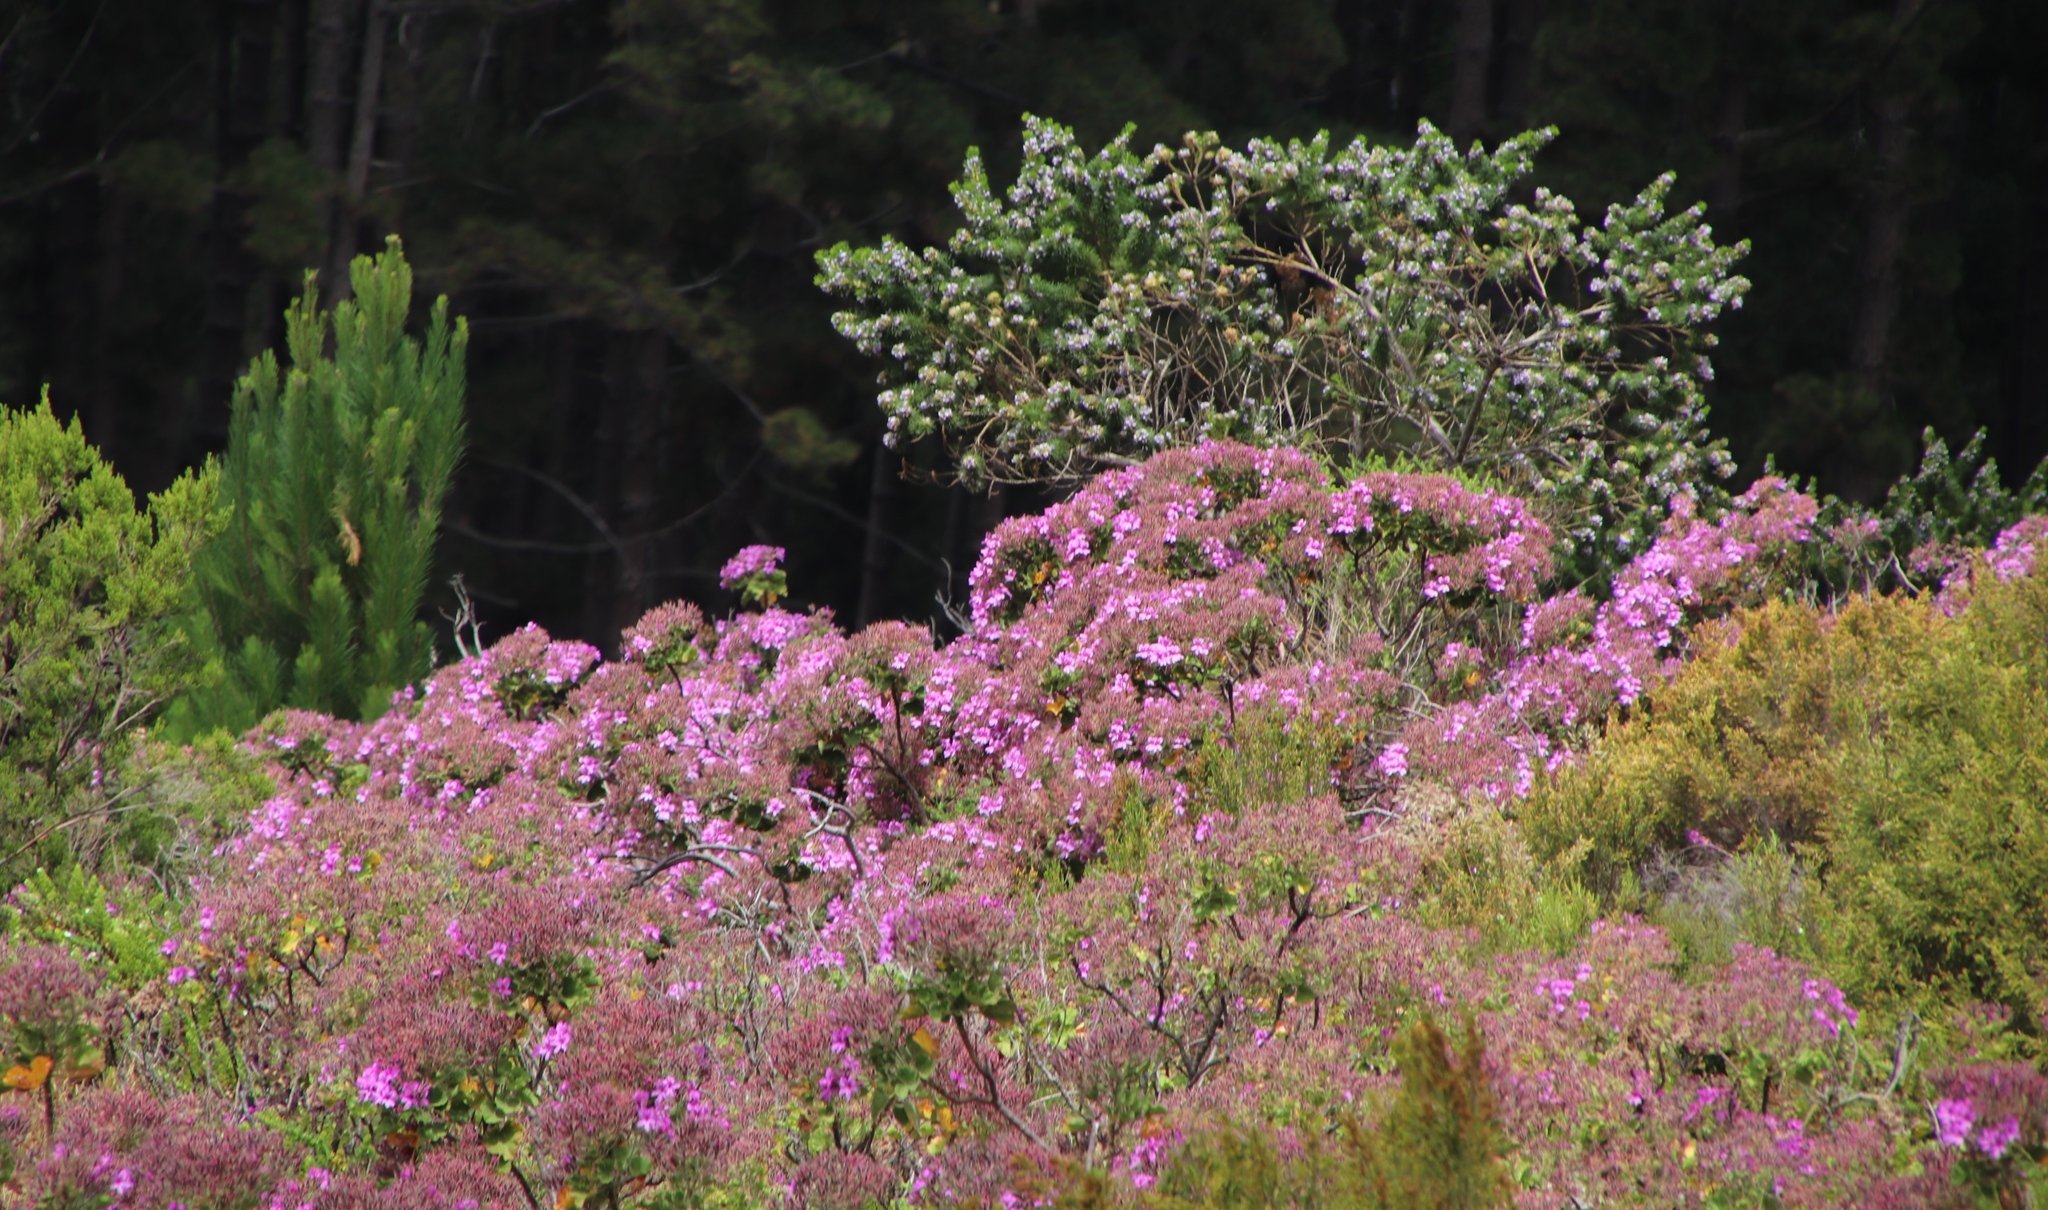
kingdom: Plantae
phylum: Tracheophyta
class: Magnoliopsida
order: Geraniales
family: Geraniaceae
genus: Pelargonium
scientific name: Pelargonium cucullatum
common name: Tree pelargonium
